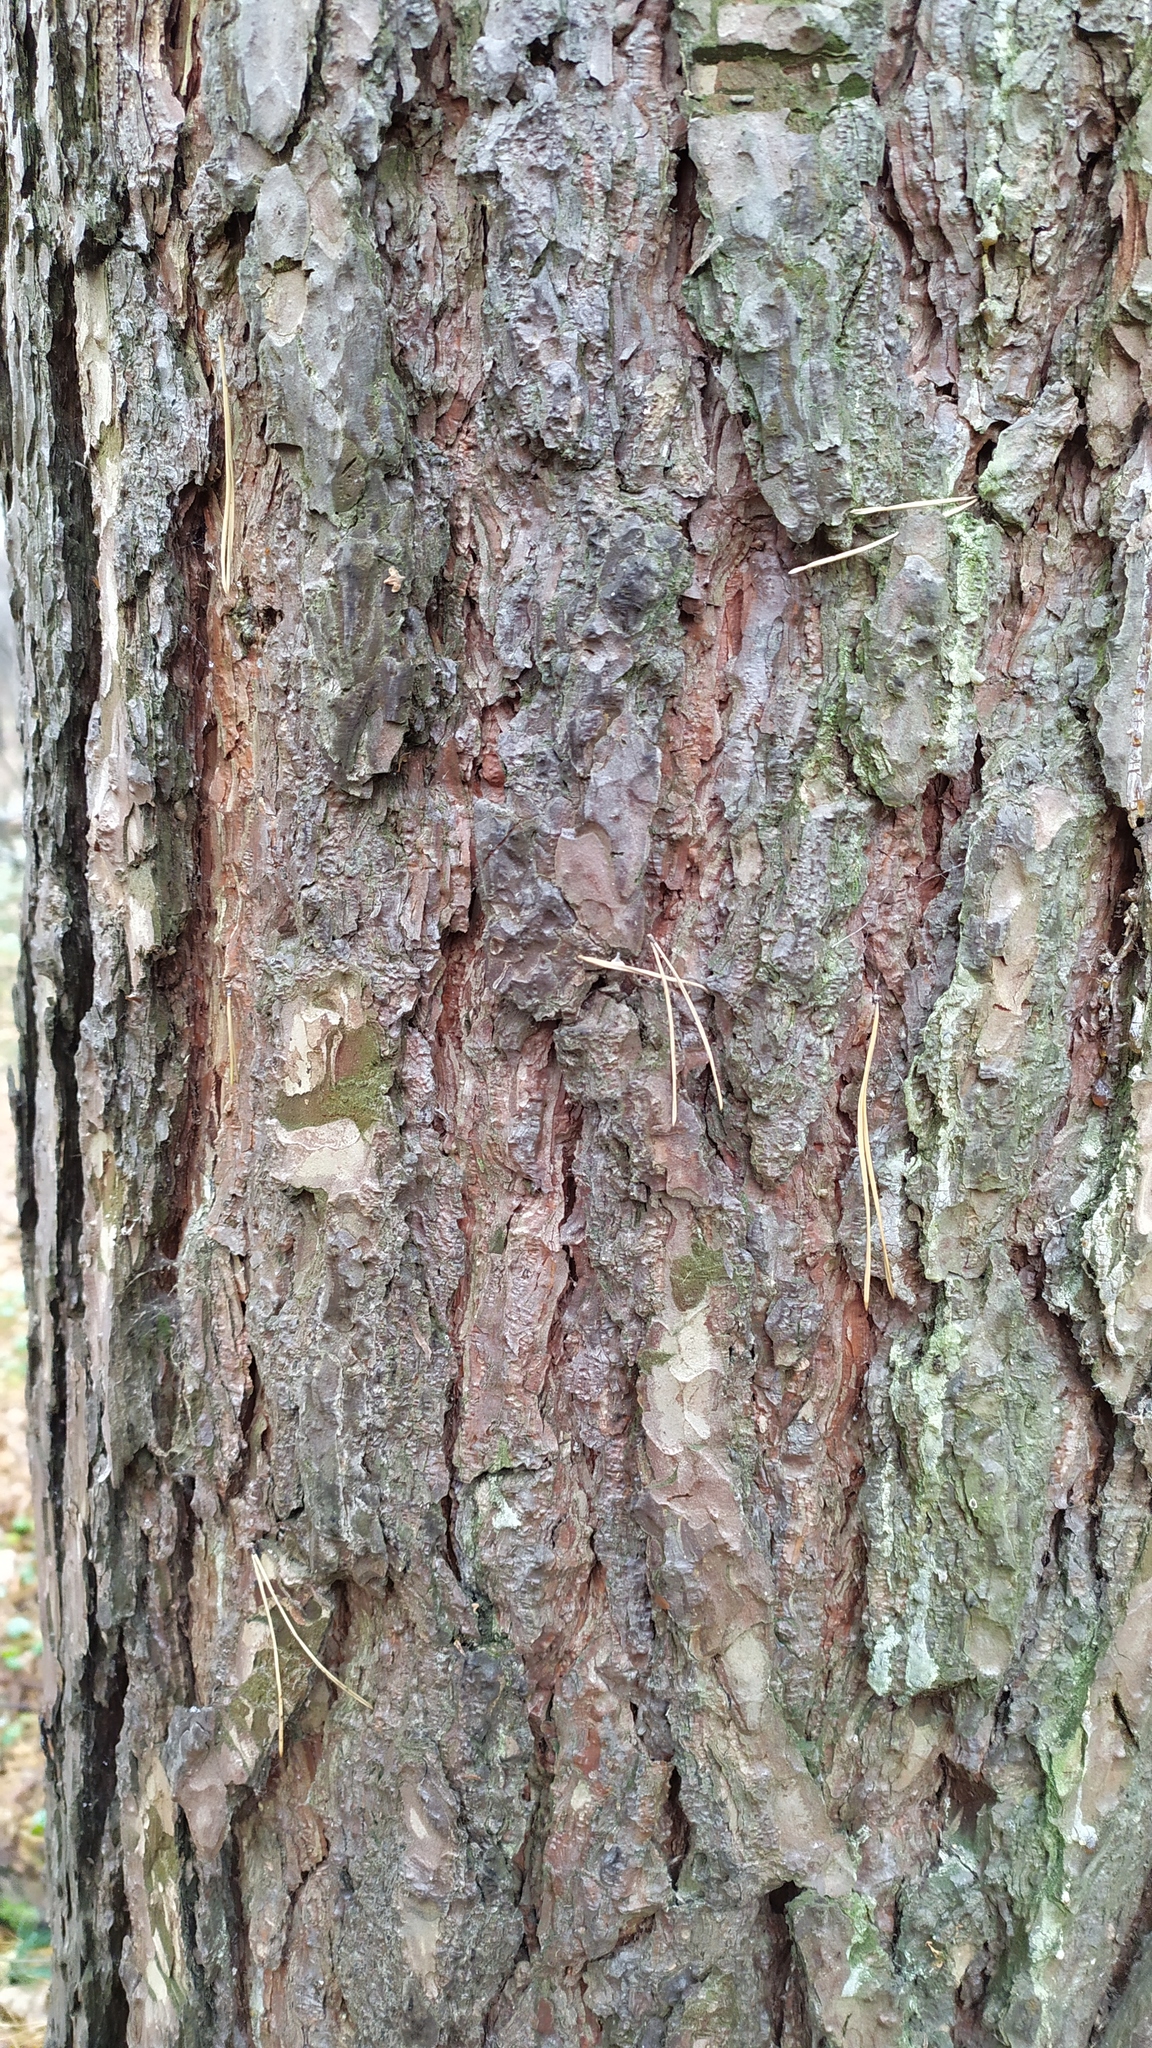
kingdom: Plantae
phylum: Tracheophyta
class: Pinopsida
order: Pinales
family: Pinaceae
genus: Pinus
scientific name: Pinus sylvestris
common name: Scots pine
